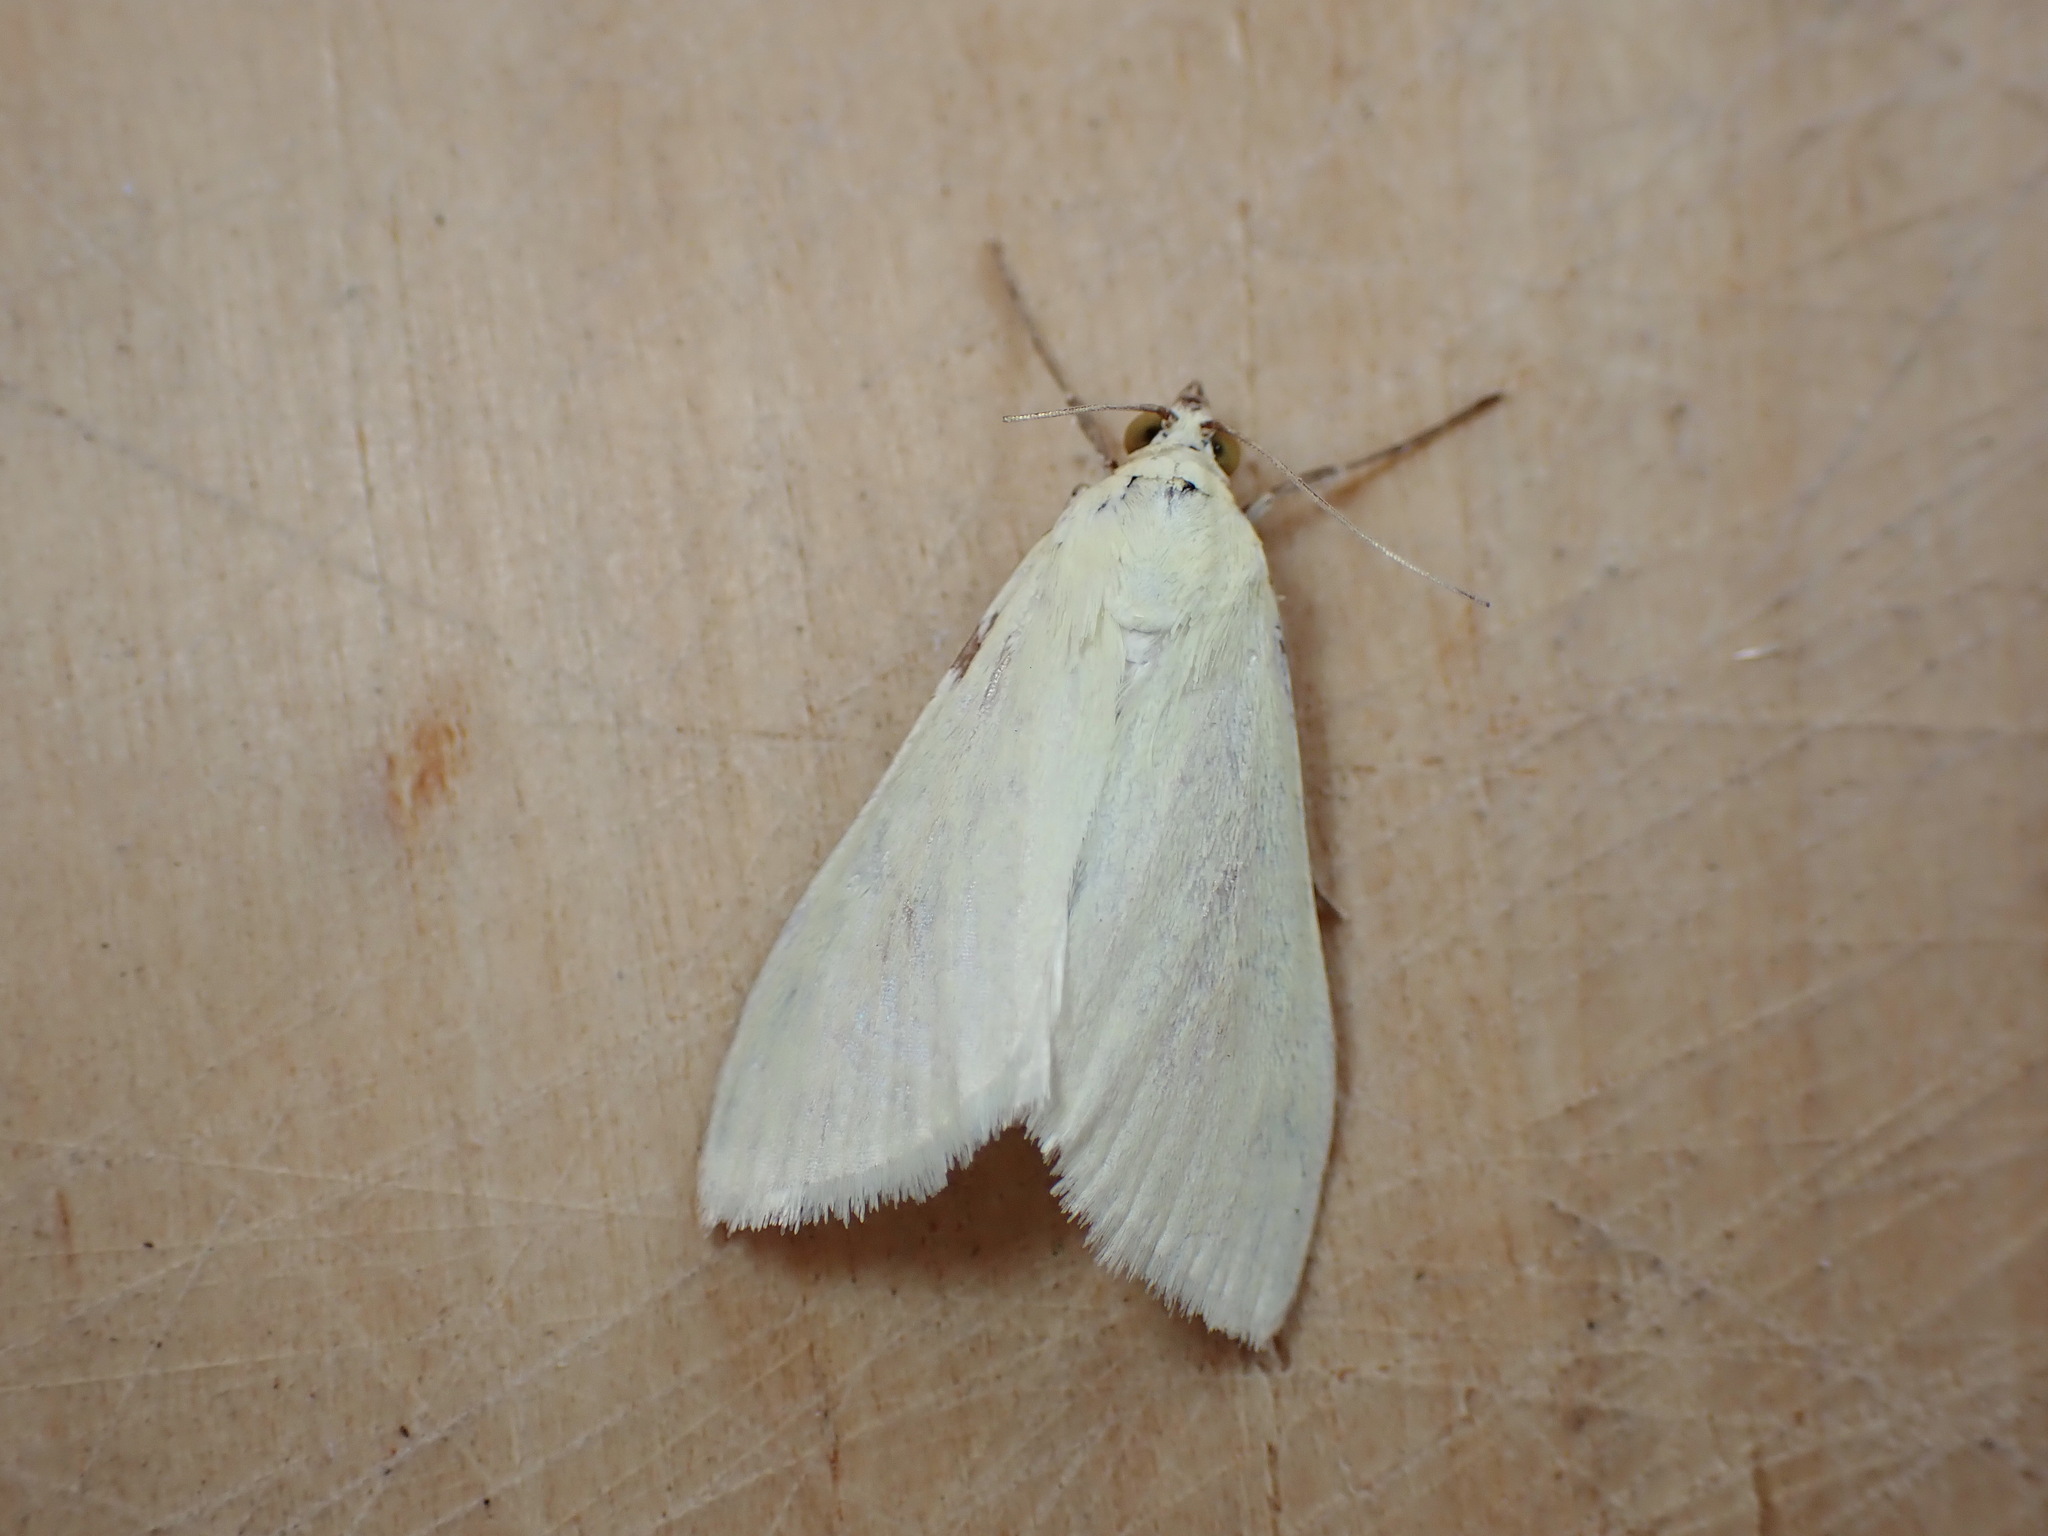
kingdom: Animalia
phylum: Arthropoda
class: Insecta
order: Lepidoptera
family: Crambidae
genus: Sitochroa
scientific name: Sitochroa palealis
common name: Greenish-yellow sitochroa moth
